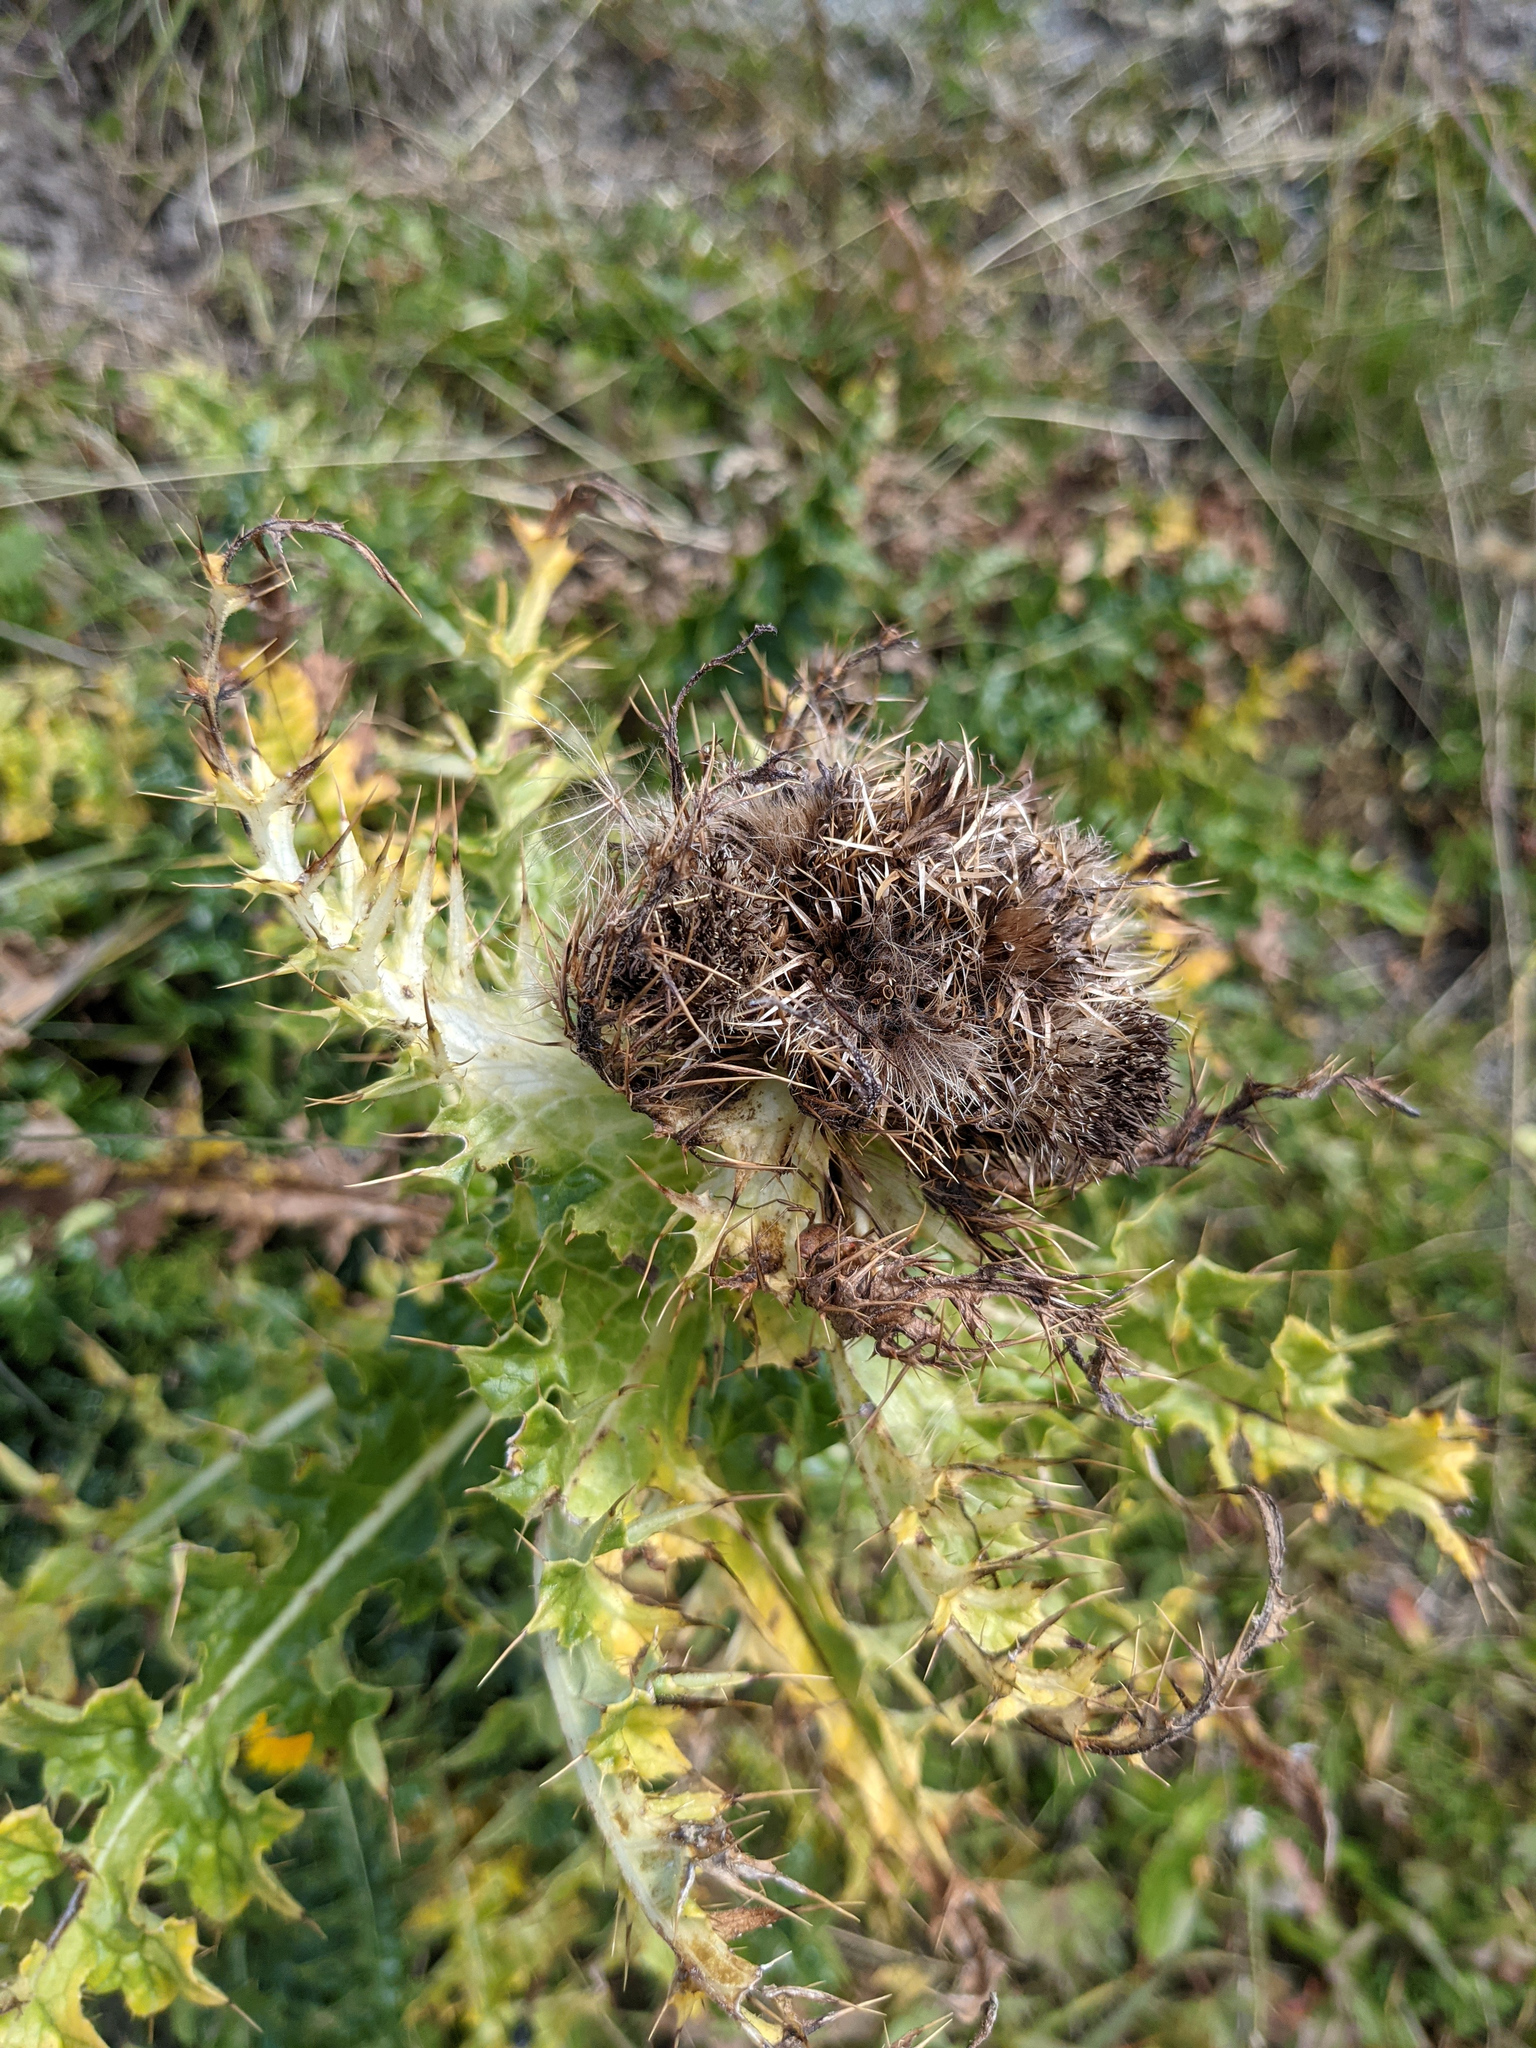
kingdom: Plantae
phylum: Tracheophyta
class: Magnoliopsida
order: Asterales
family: Asteraceae
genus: Cirsium
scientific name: Cirsium spinosissimum
